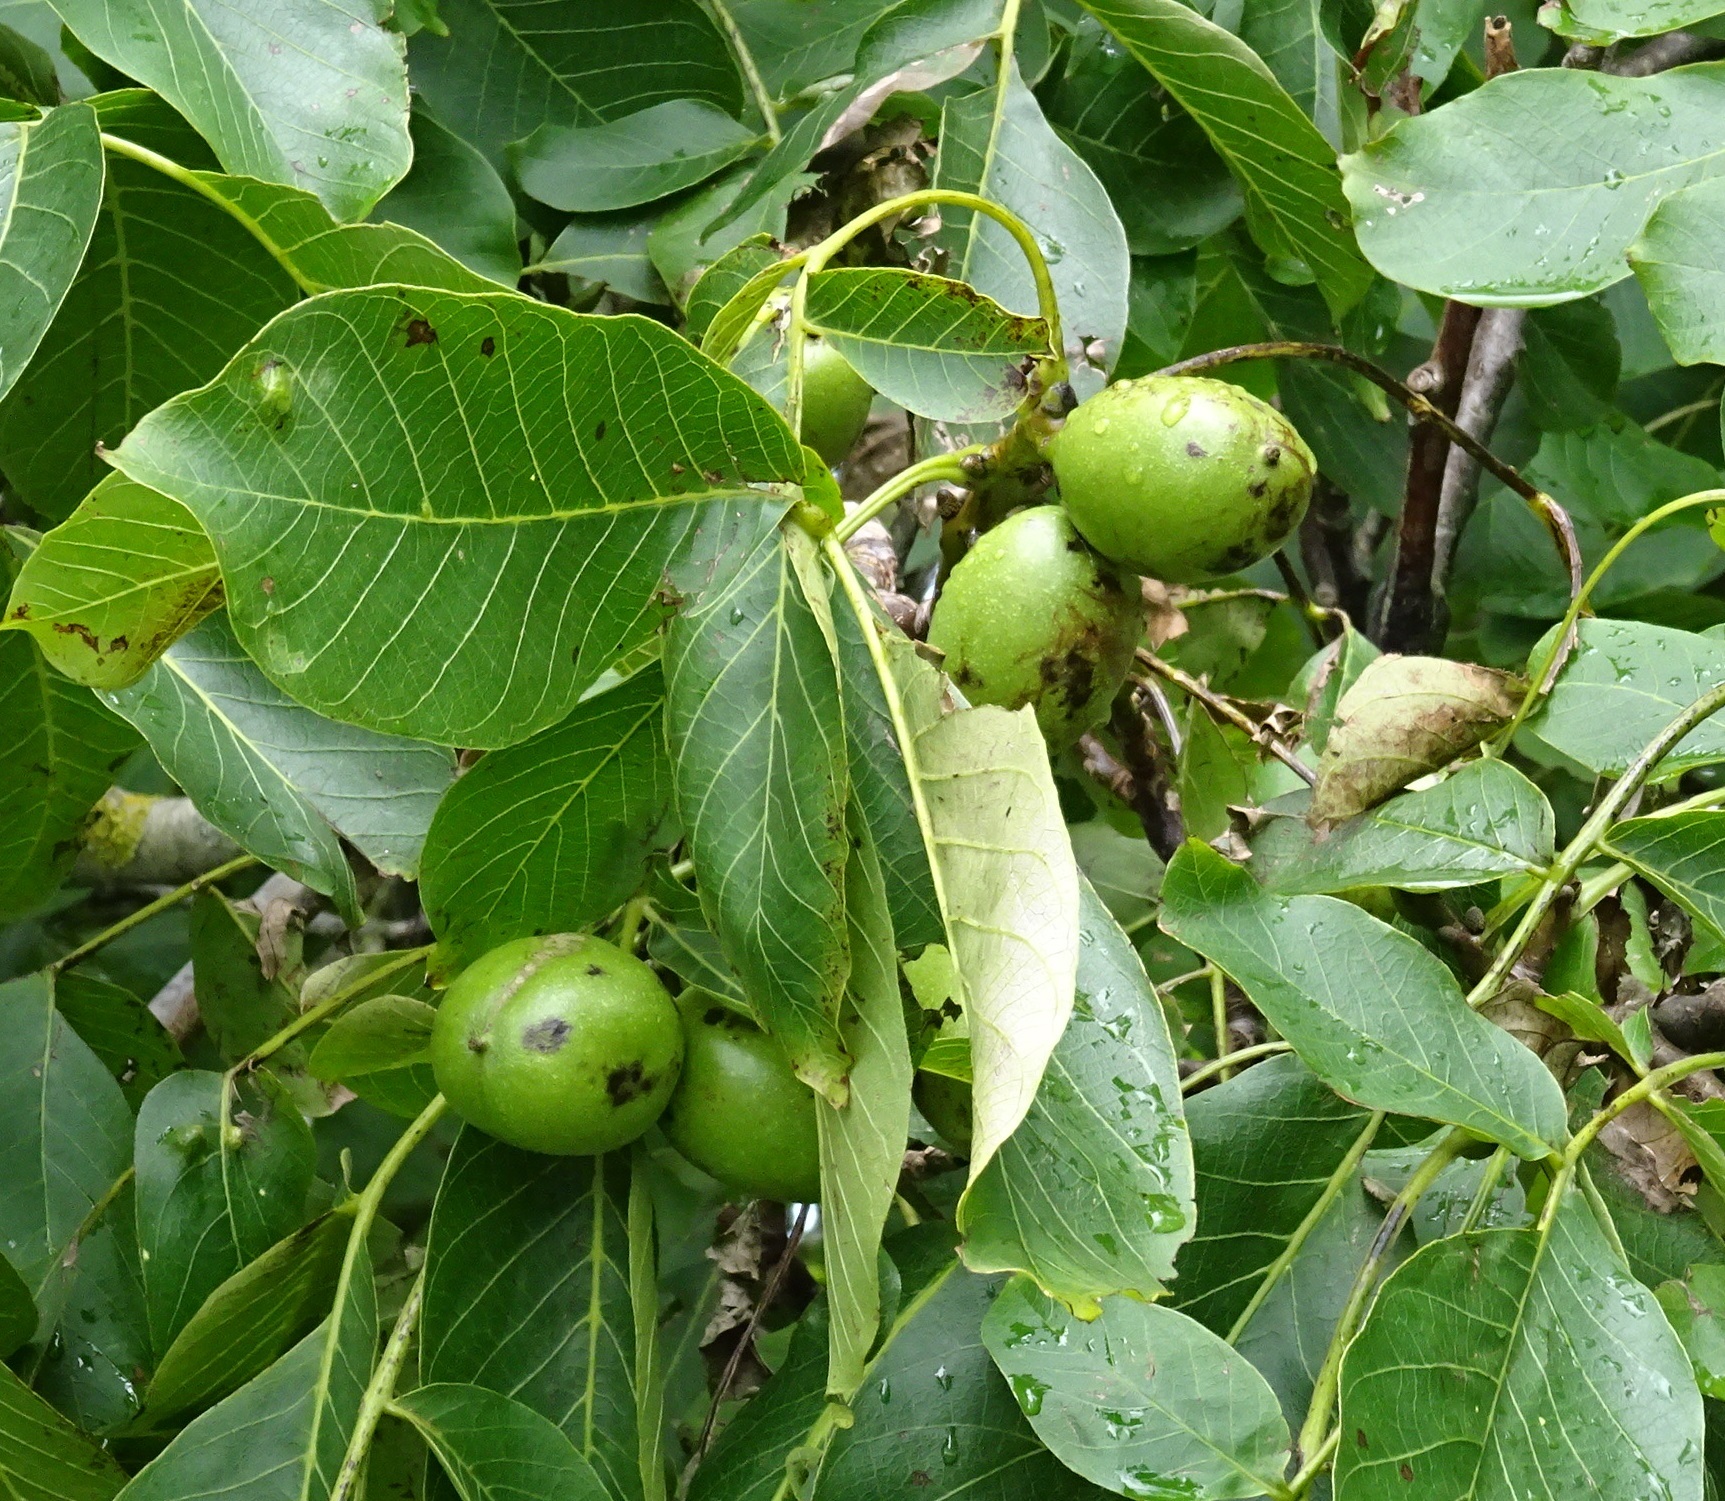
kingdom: Plantae
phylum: Tracheophyta
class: Magnoliopsida
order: Fagales
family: Juglandaceae
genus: Juglans
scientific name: Juglans regia
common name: Walnut
